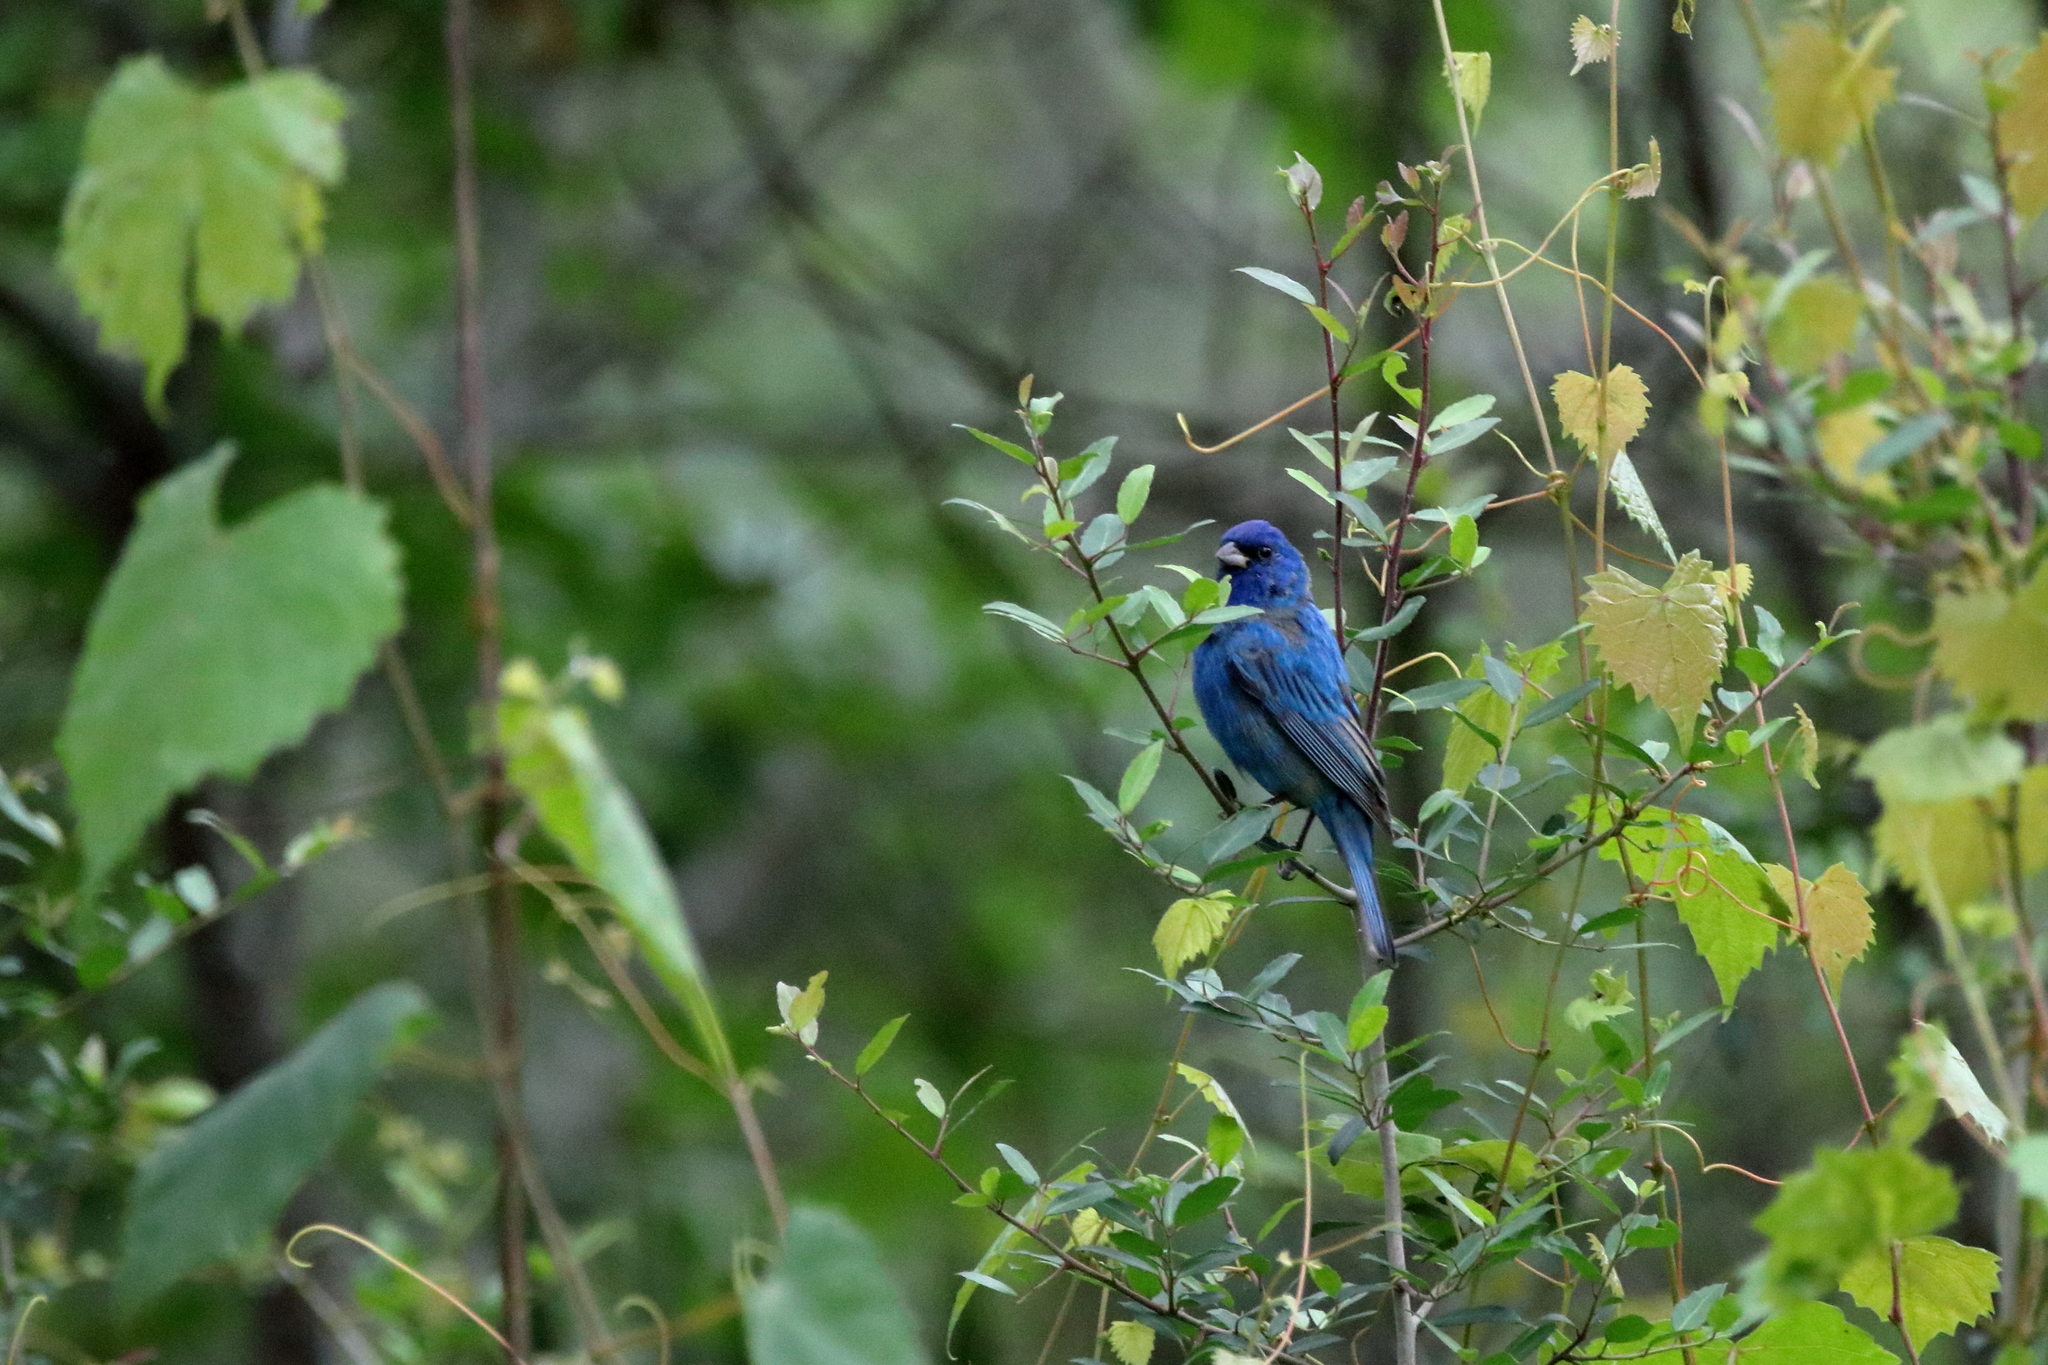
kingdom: Animalia
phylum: Chordata
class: Aves
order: Passeriformes
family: Cardinalidae
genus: Passerina
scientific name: Passerina cyanea
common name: Indigo bunting
